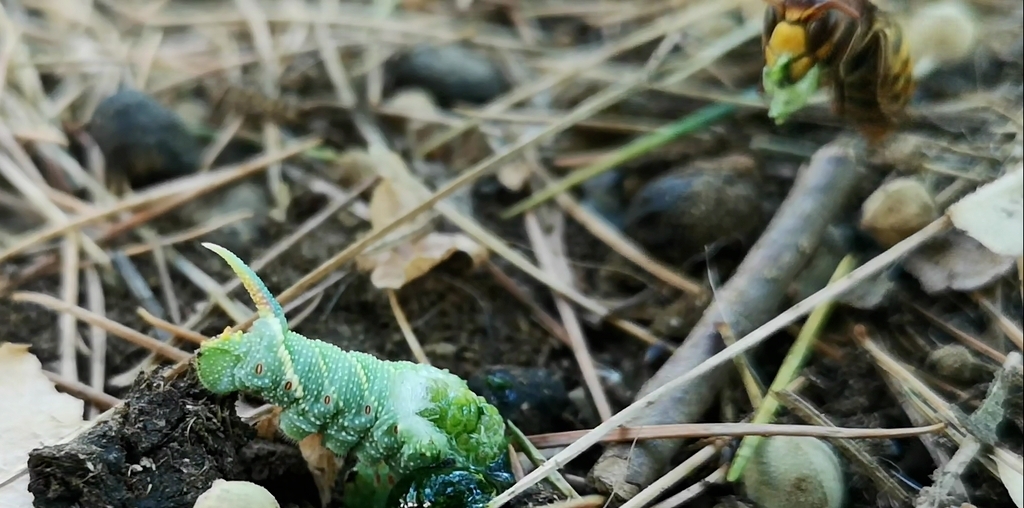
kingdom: Animalia
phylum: Arthropoda
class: Insecta
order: Hymenoptera
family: Vespidae
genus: Vespa
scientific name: Vespa crabro
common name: Hornet
